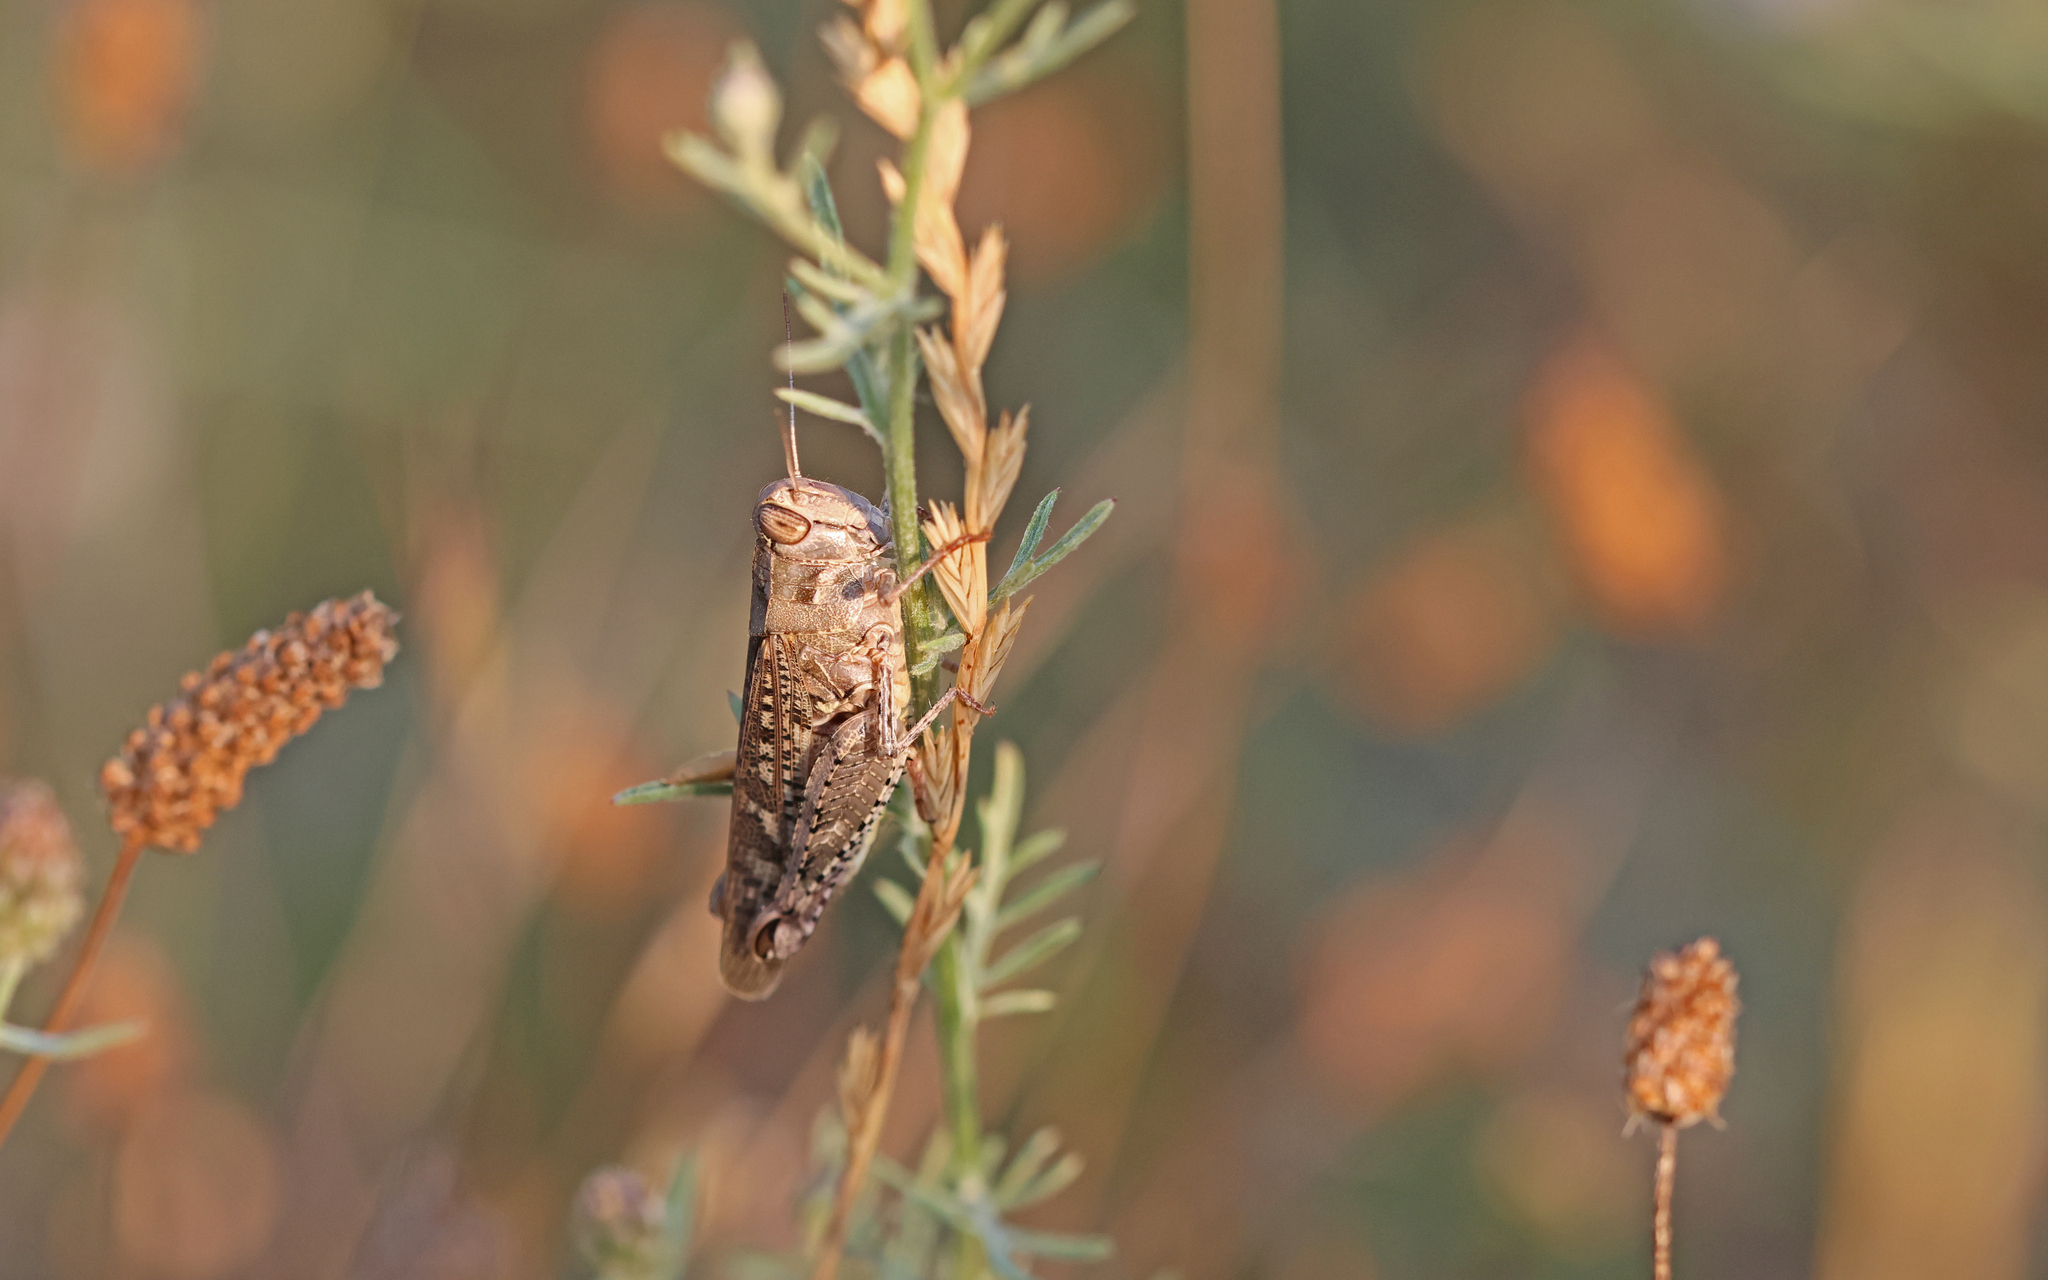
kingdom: Animalia
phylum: Arthropoda
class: Insecta
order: Orthoptera
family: Acrididae
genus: Calliptamus
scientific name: Calliptamus italicus
